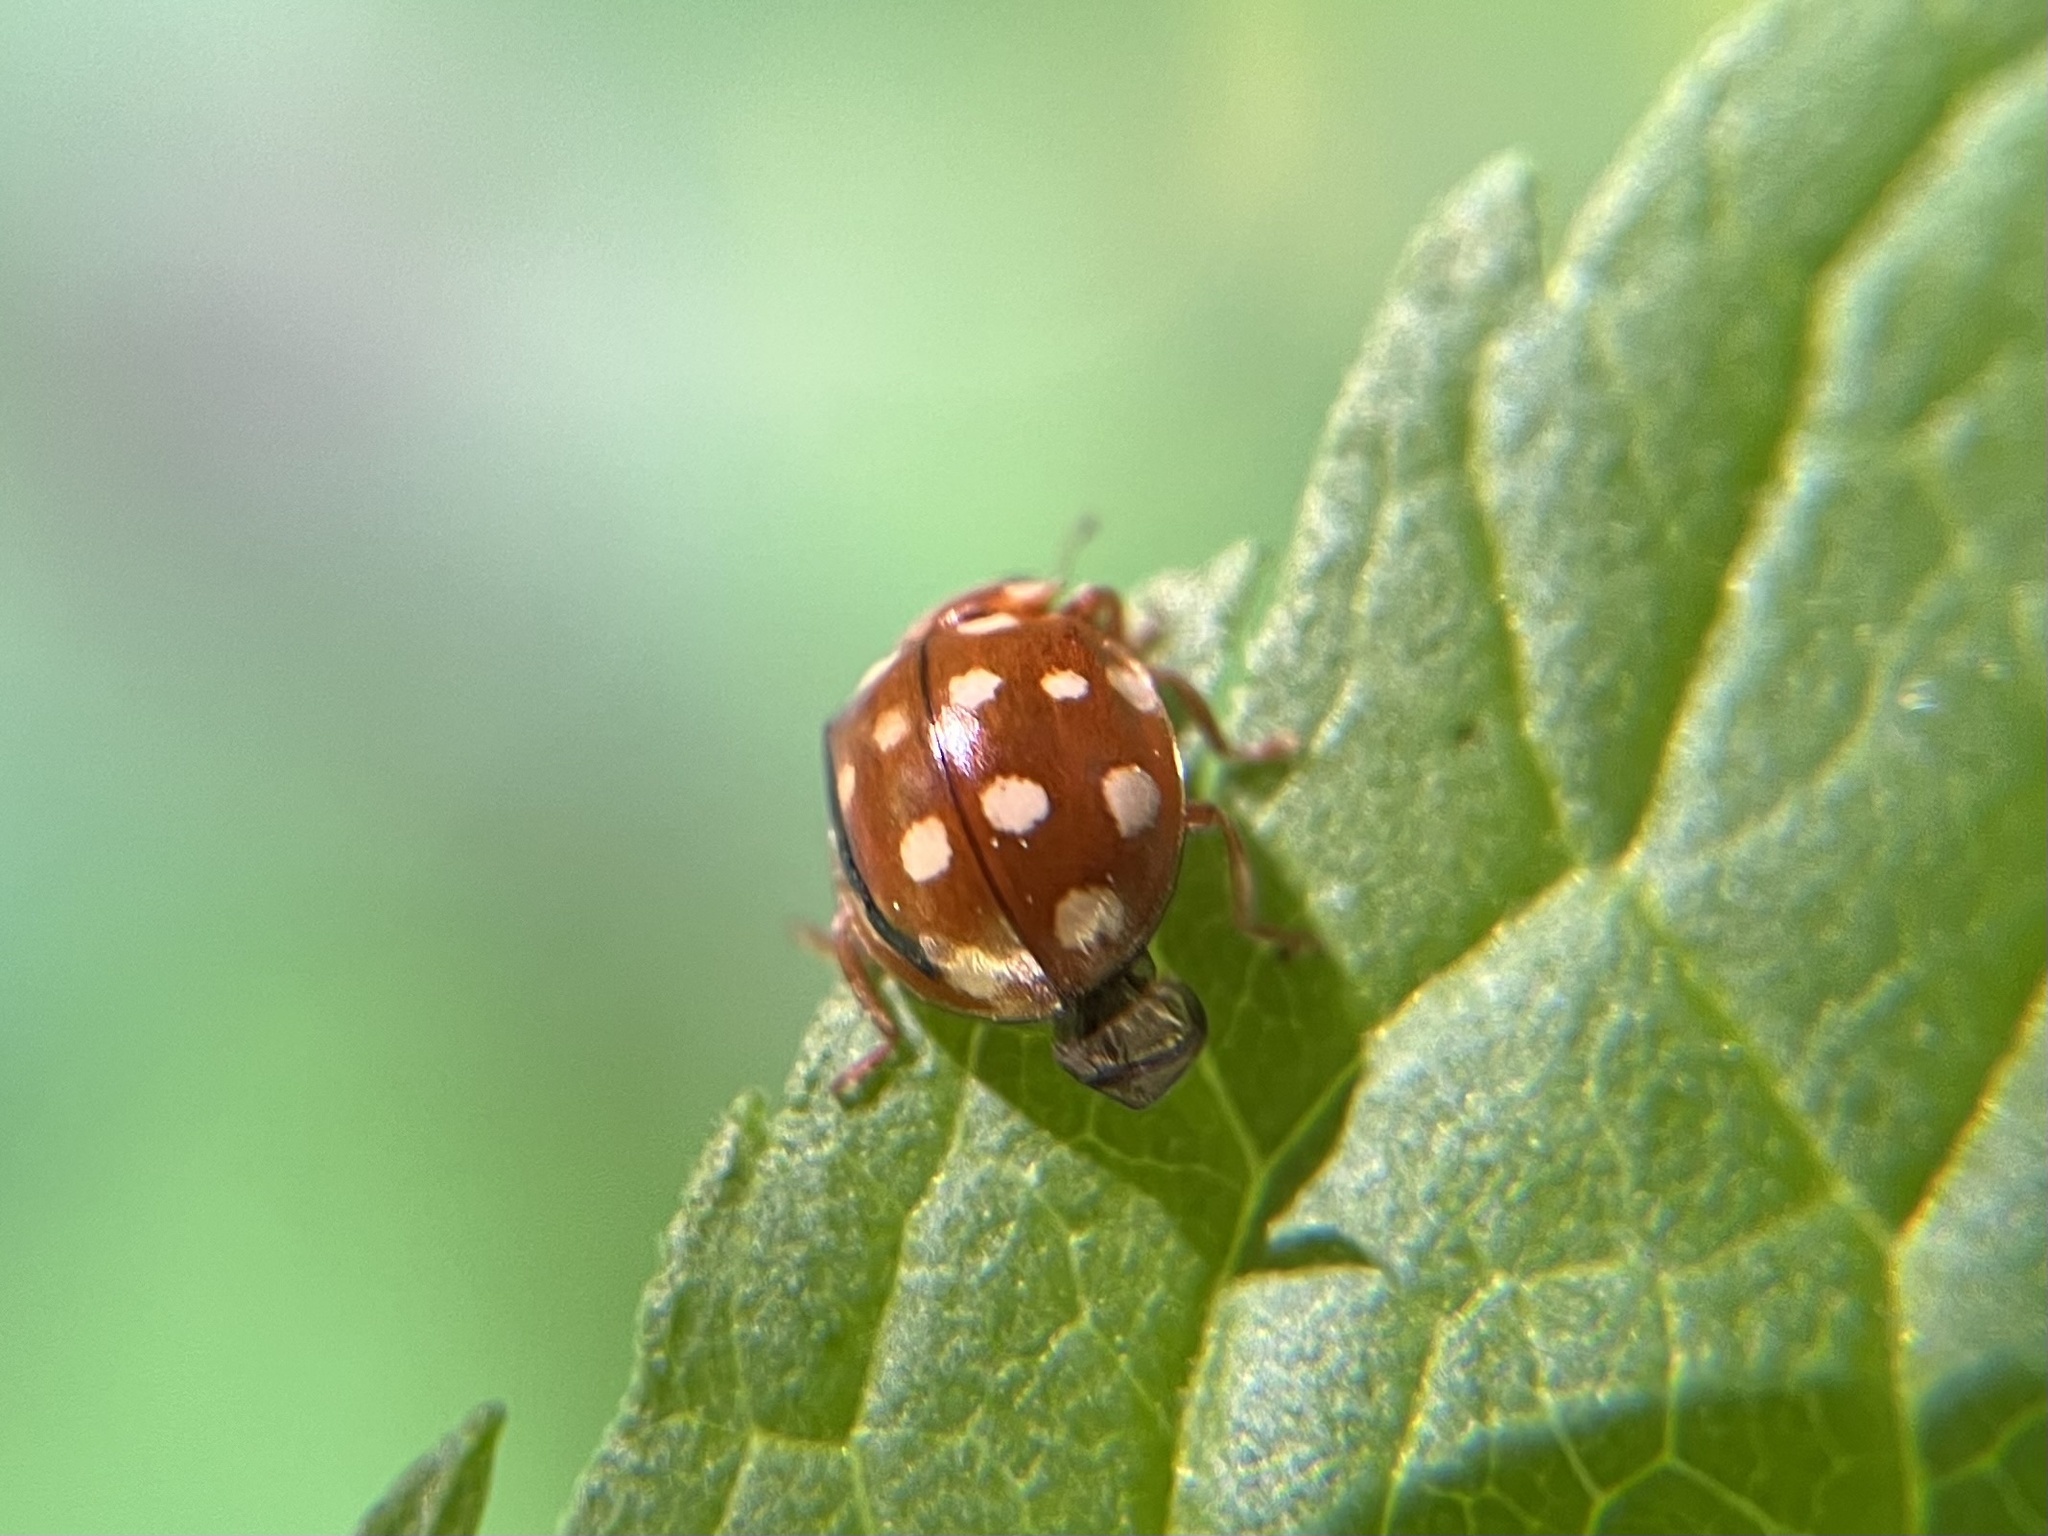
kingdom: Animalia
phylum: Arthropoda
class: Insecta
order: Coleoptera
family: Coccinellidae
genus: Calvia
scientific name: Calvia quatuordecimguttata
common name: Cream-spot ladybird
